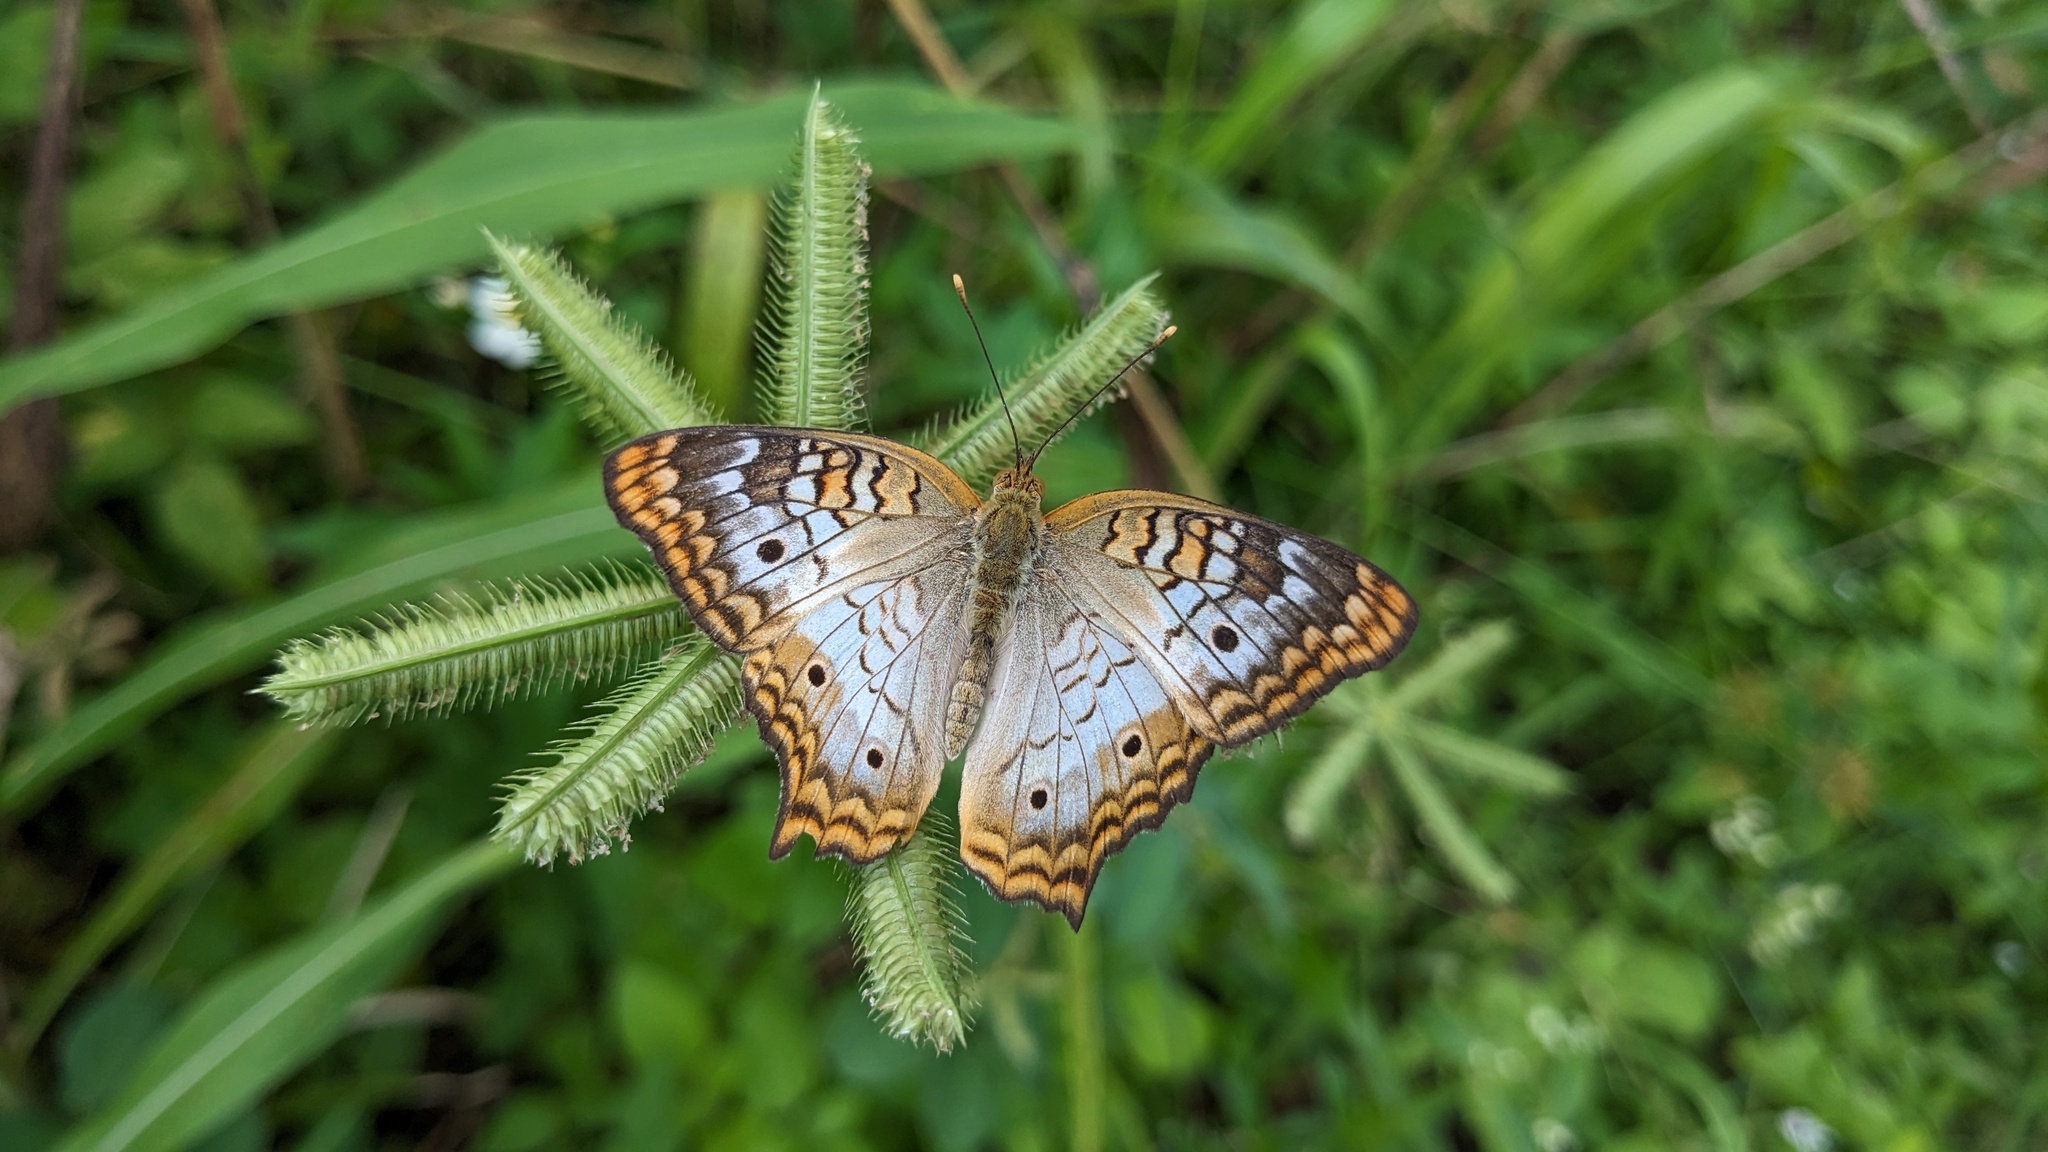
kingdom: Animalia
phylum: Arthropoda
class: Insecta
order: Lepidoptera
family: Nymphalidae
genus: Anartia
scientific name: Anartia jatrophae
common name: White peacock
